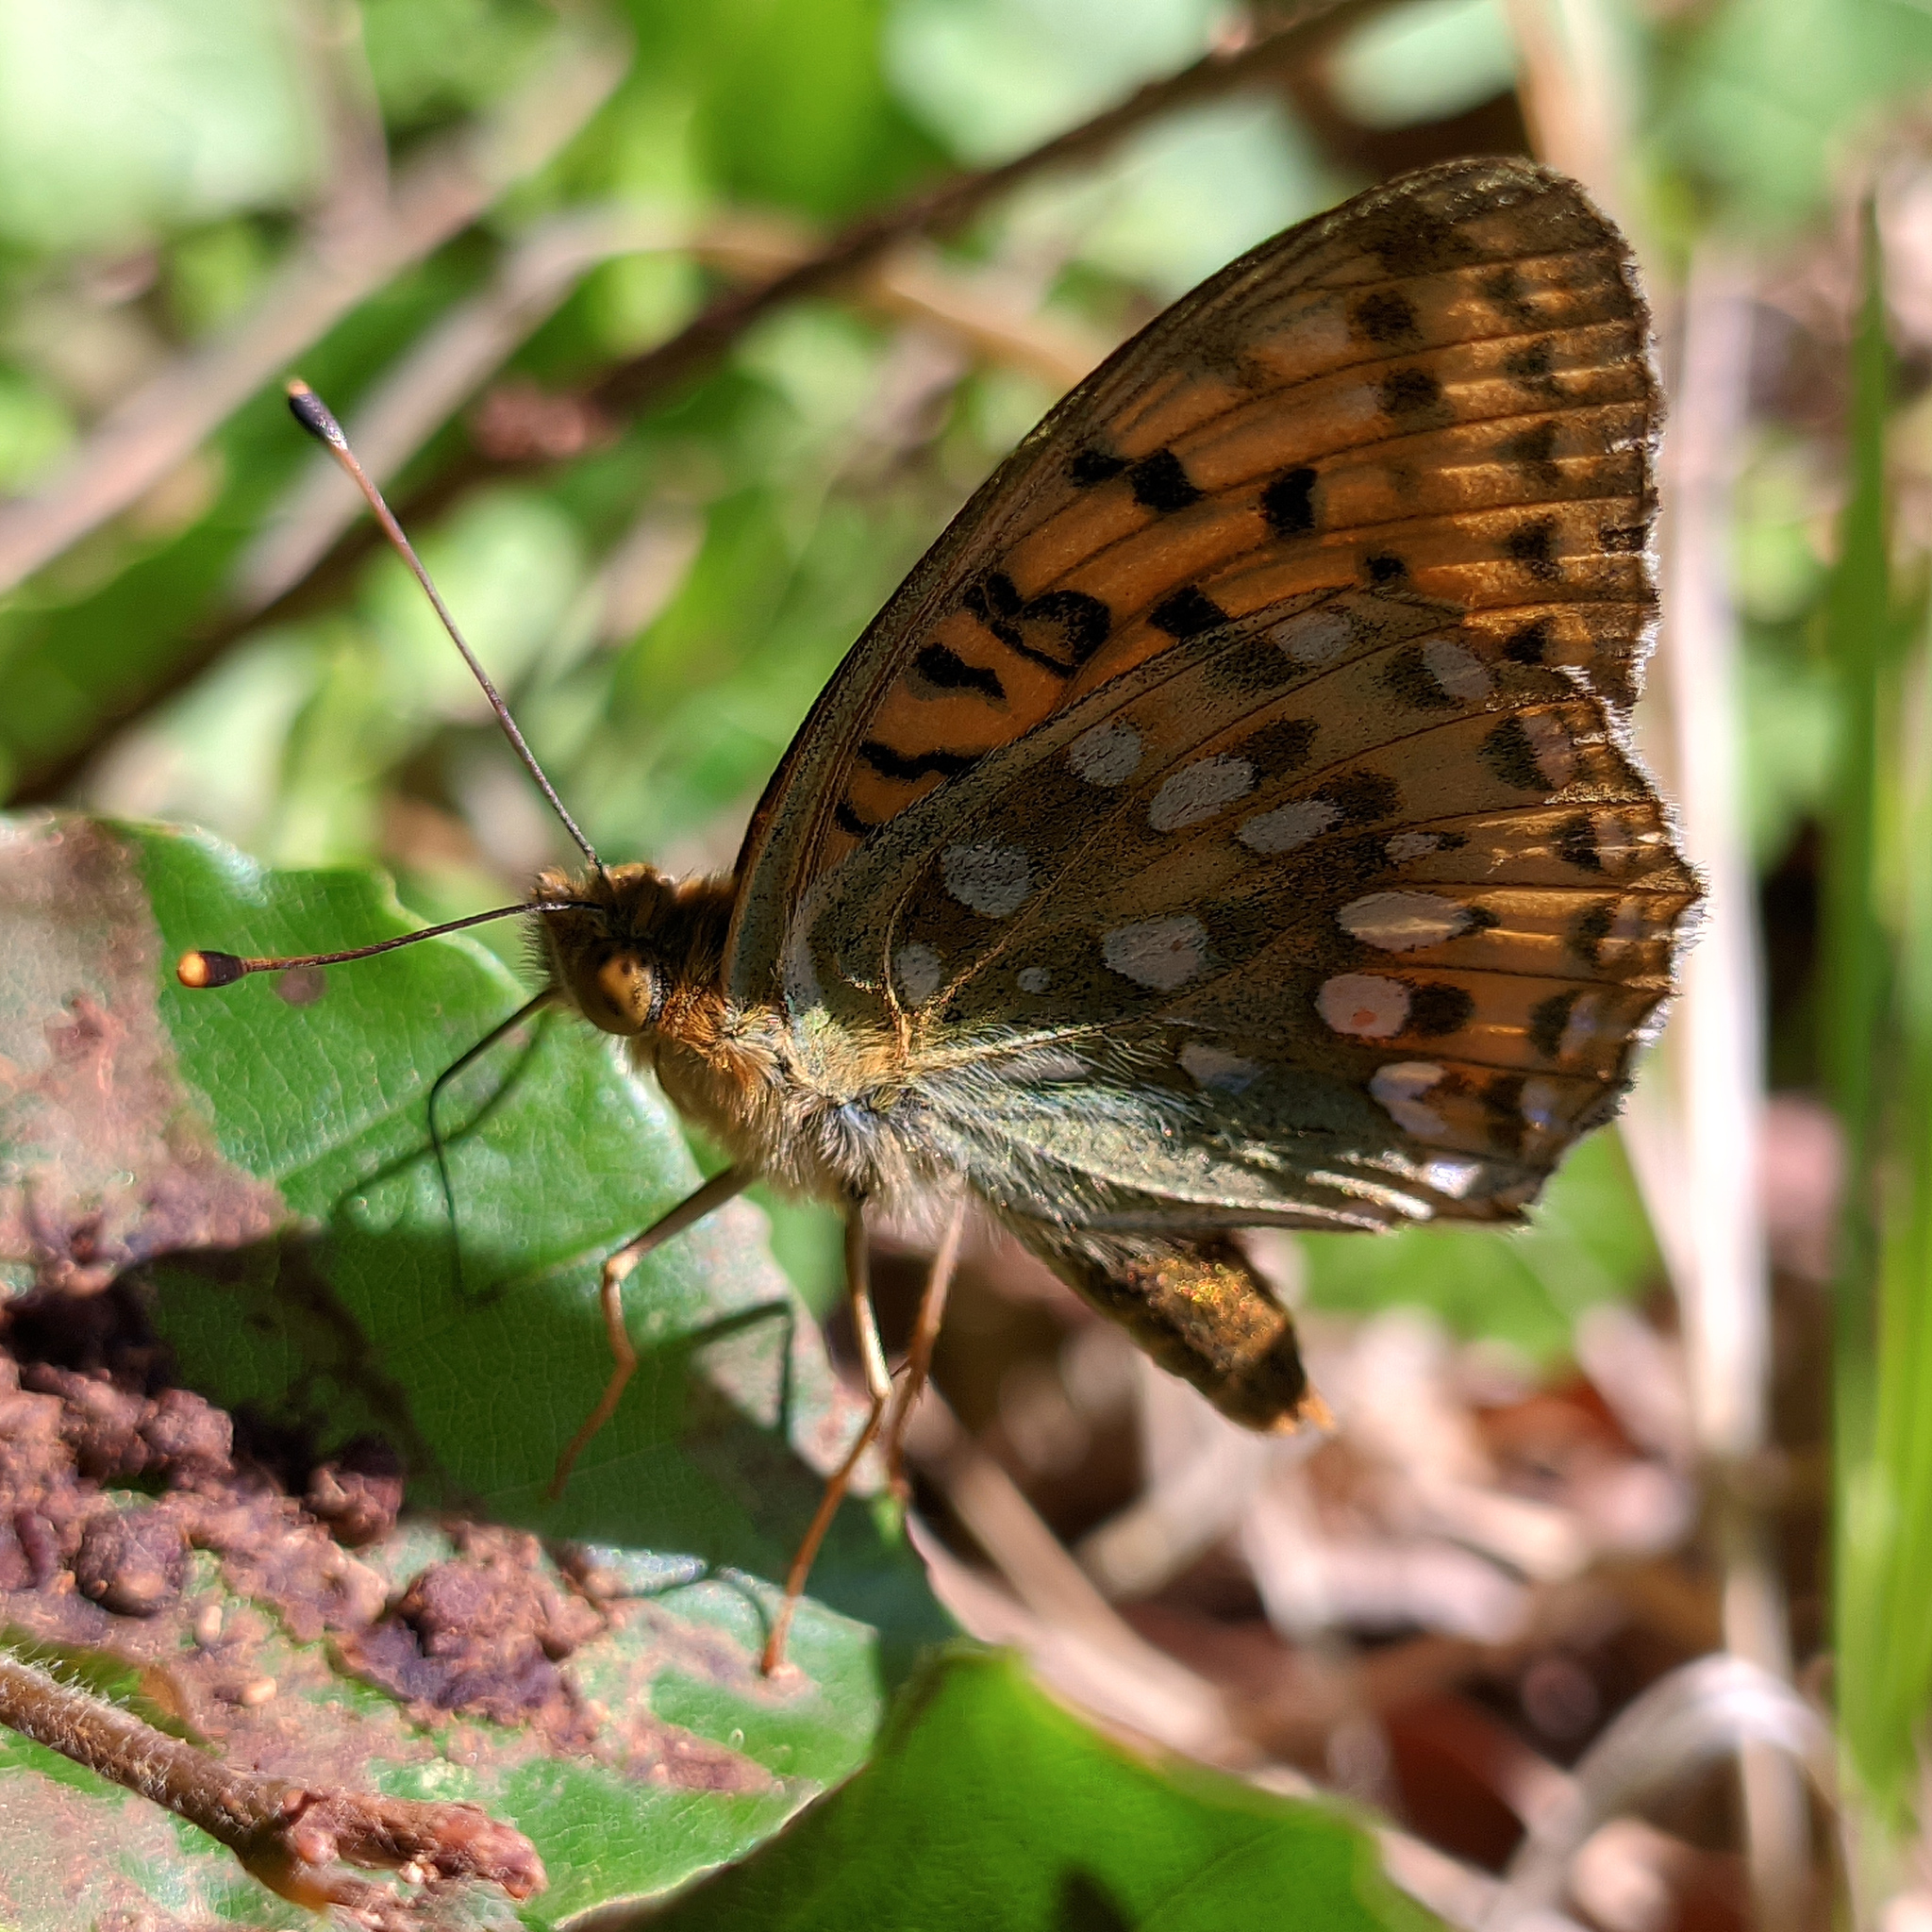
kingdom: Animalia
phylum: Arthropoda
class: Insecta
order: Lepidoptera
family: Nymphalidae
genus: Speyeria
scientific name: Speyeria aglaja
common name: Dark green fritillary
